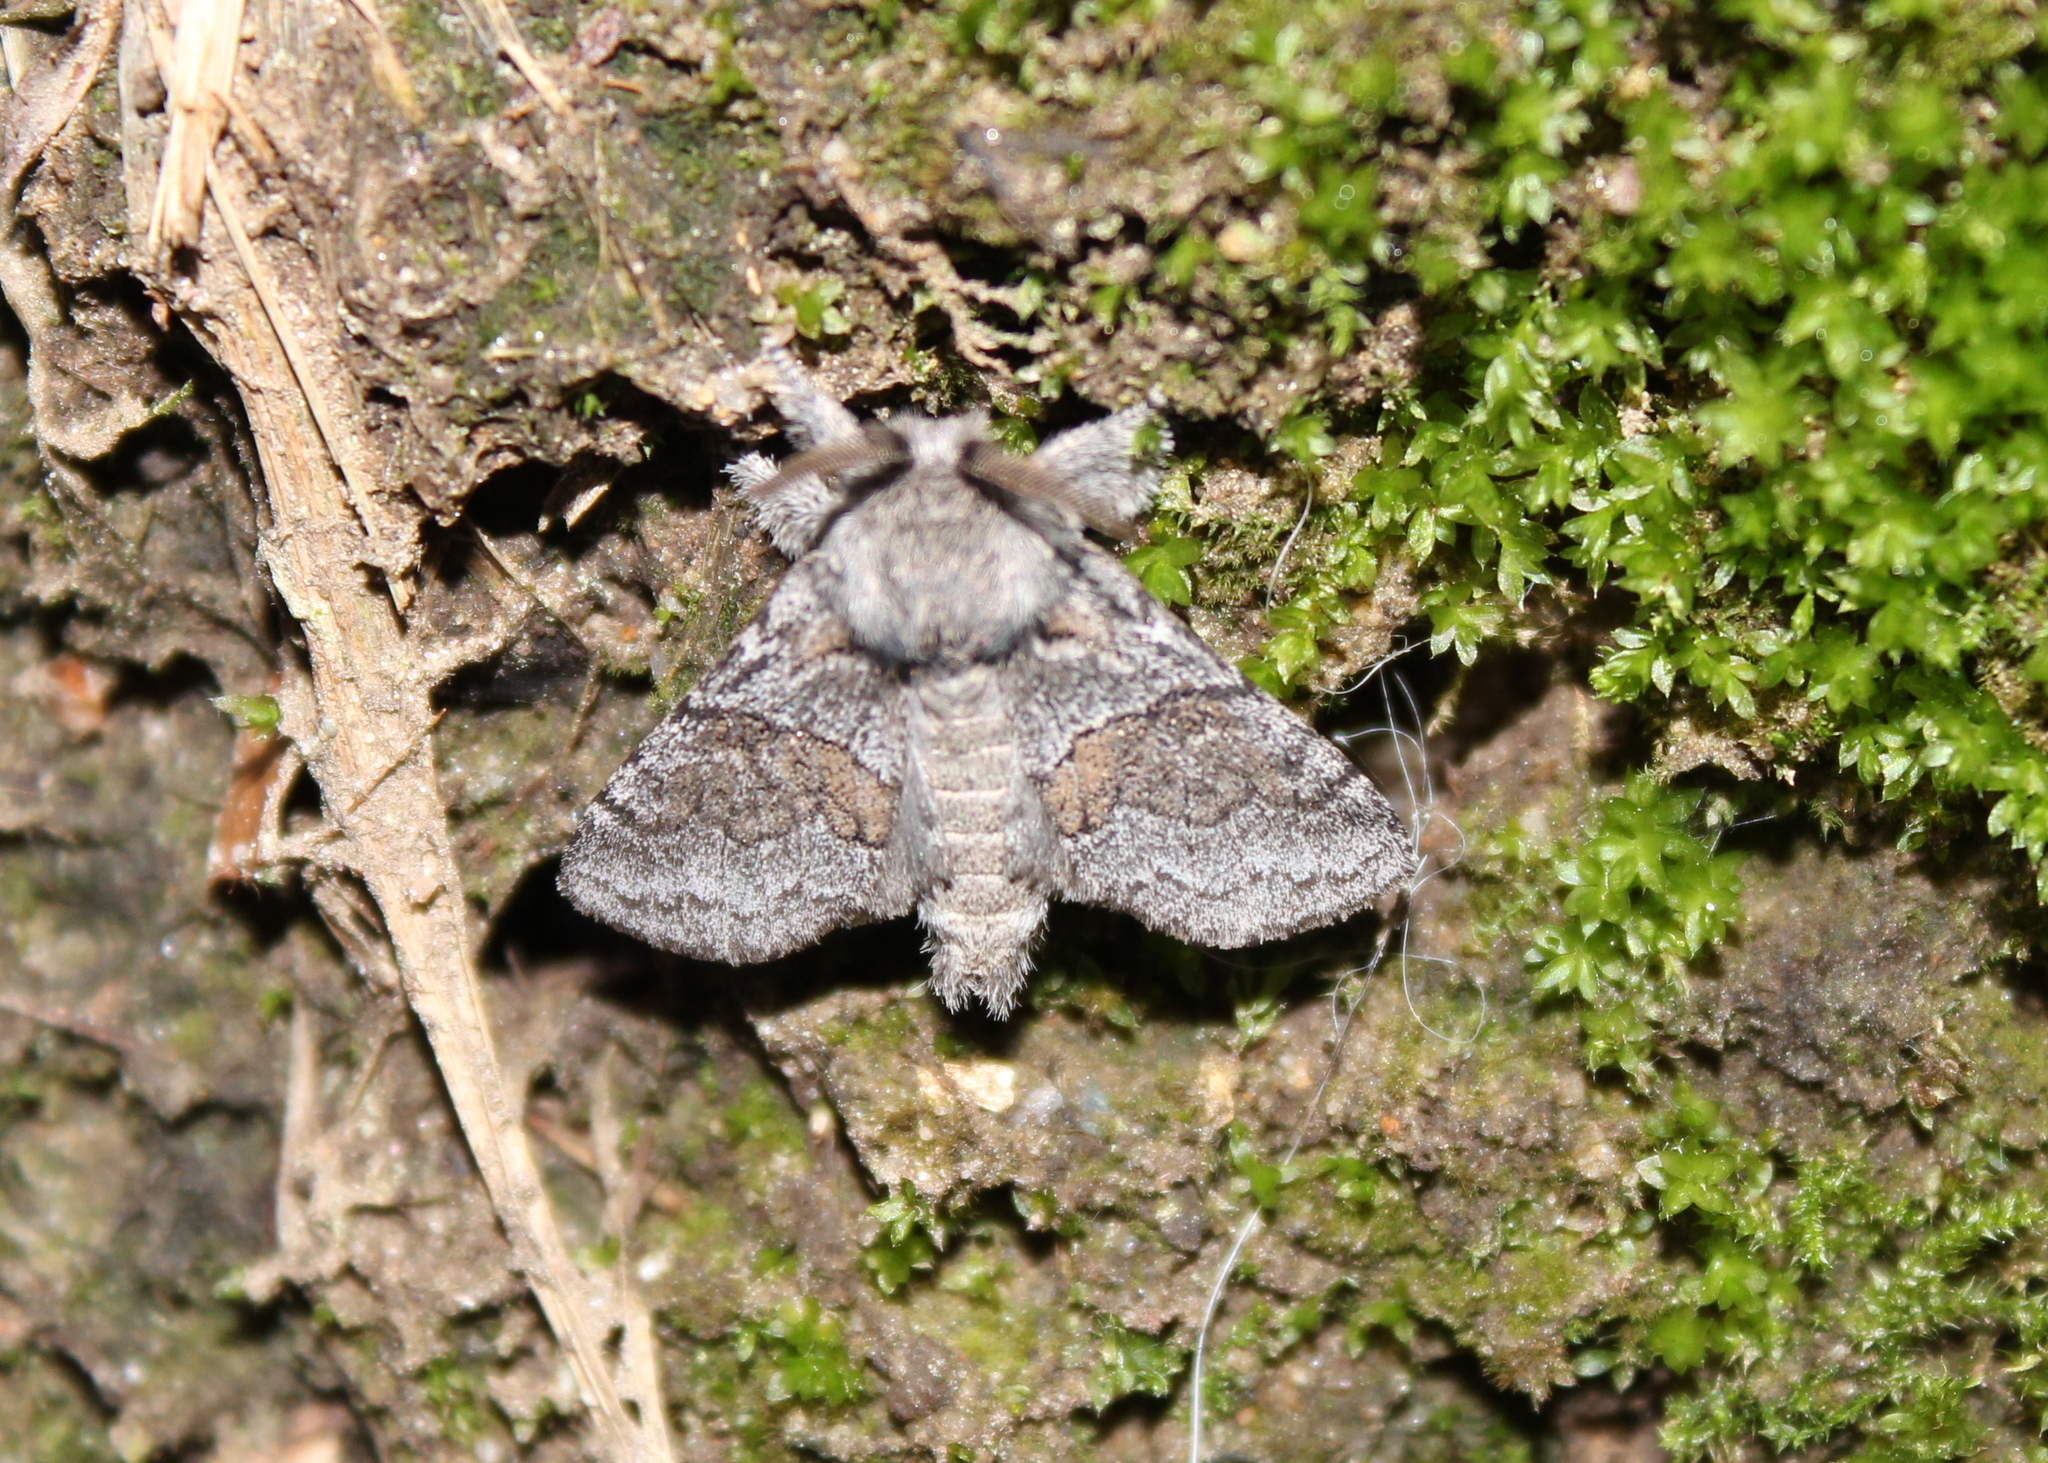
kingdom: Animalia
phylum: Arthropoda
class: Insecta
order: Lepidoptera
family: Notodontidae
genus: Gluphisia
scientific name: Gluphisia septentrionis
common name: Common gluphisia
